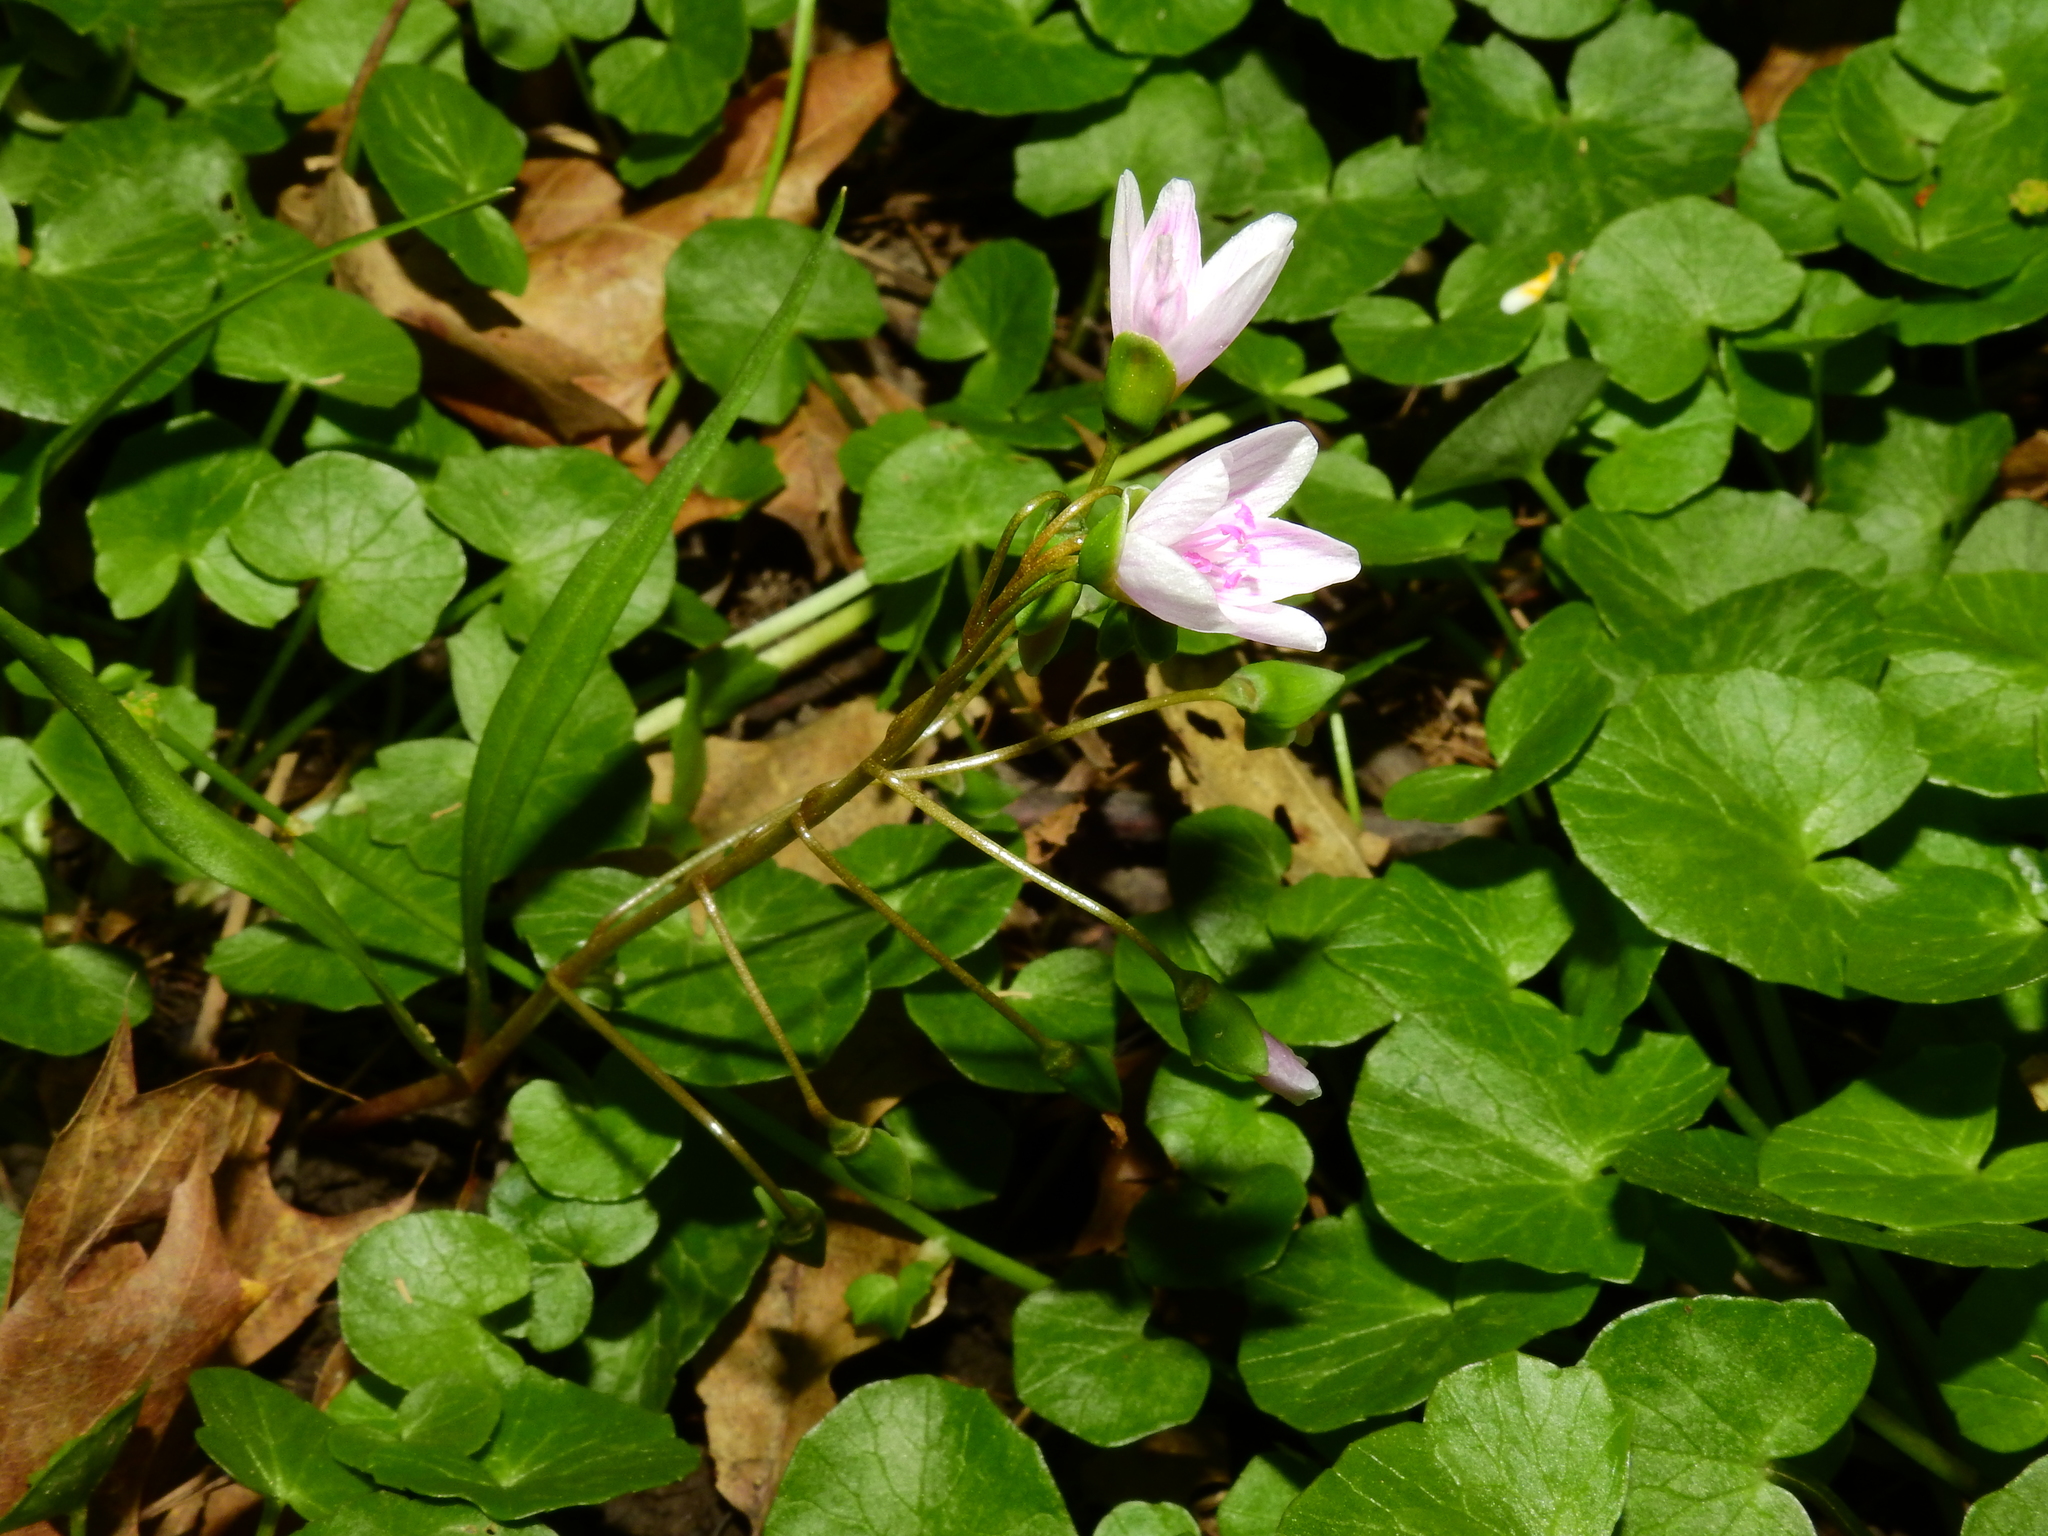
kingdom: Plantae
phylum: Tracheophyta
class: Magnoliopsida
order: Caryophyllales
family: Montiaceae
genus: Claytonia
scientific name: Claytonia virginica
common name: Virginia springbeauty
